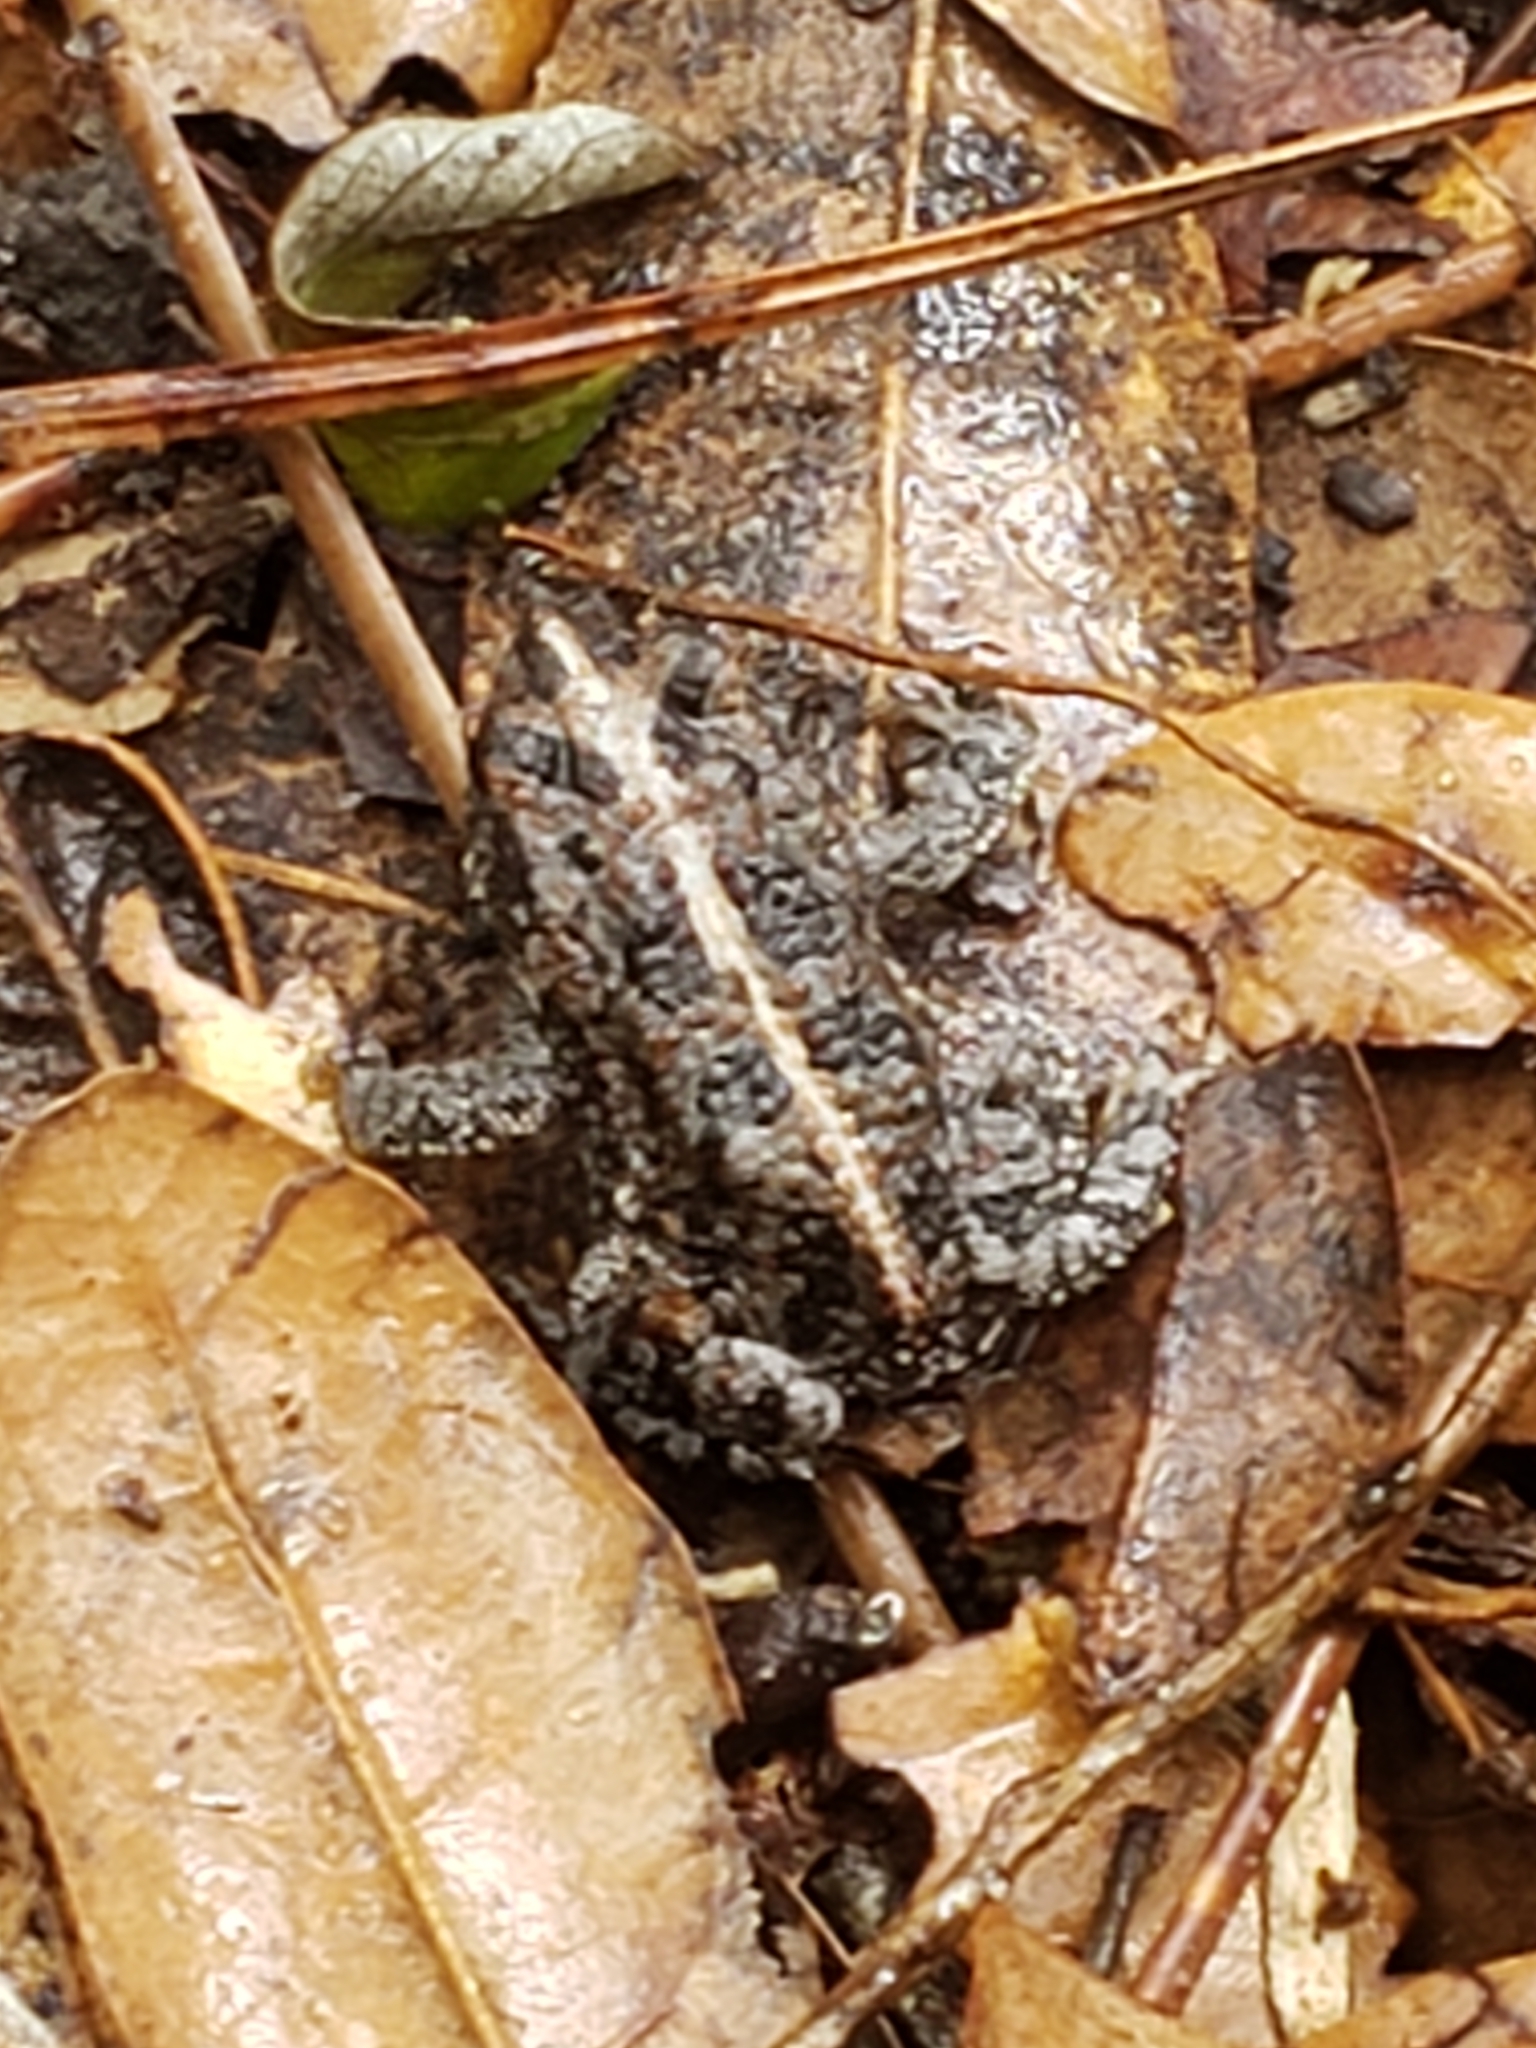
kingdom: Animalia
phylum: Chordata
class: Amphibia
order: Anura
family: Bufonidae
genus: Anaxyrus
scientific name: Anaxyrus quercicus
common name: Oak toad
